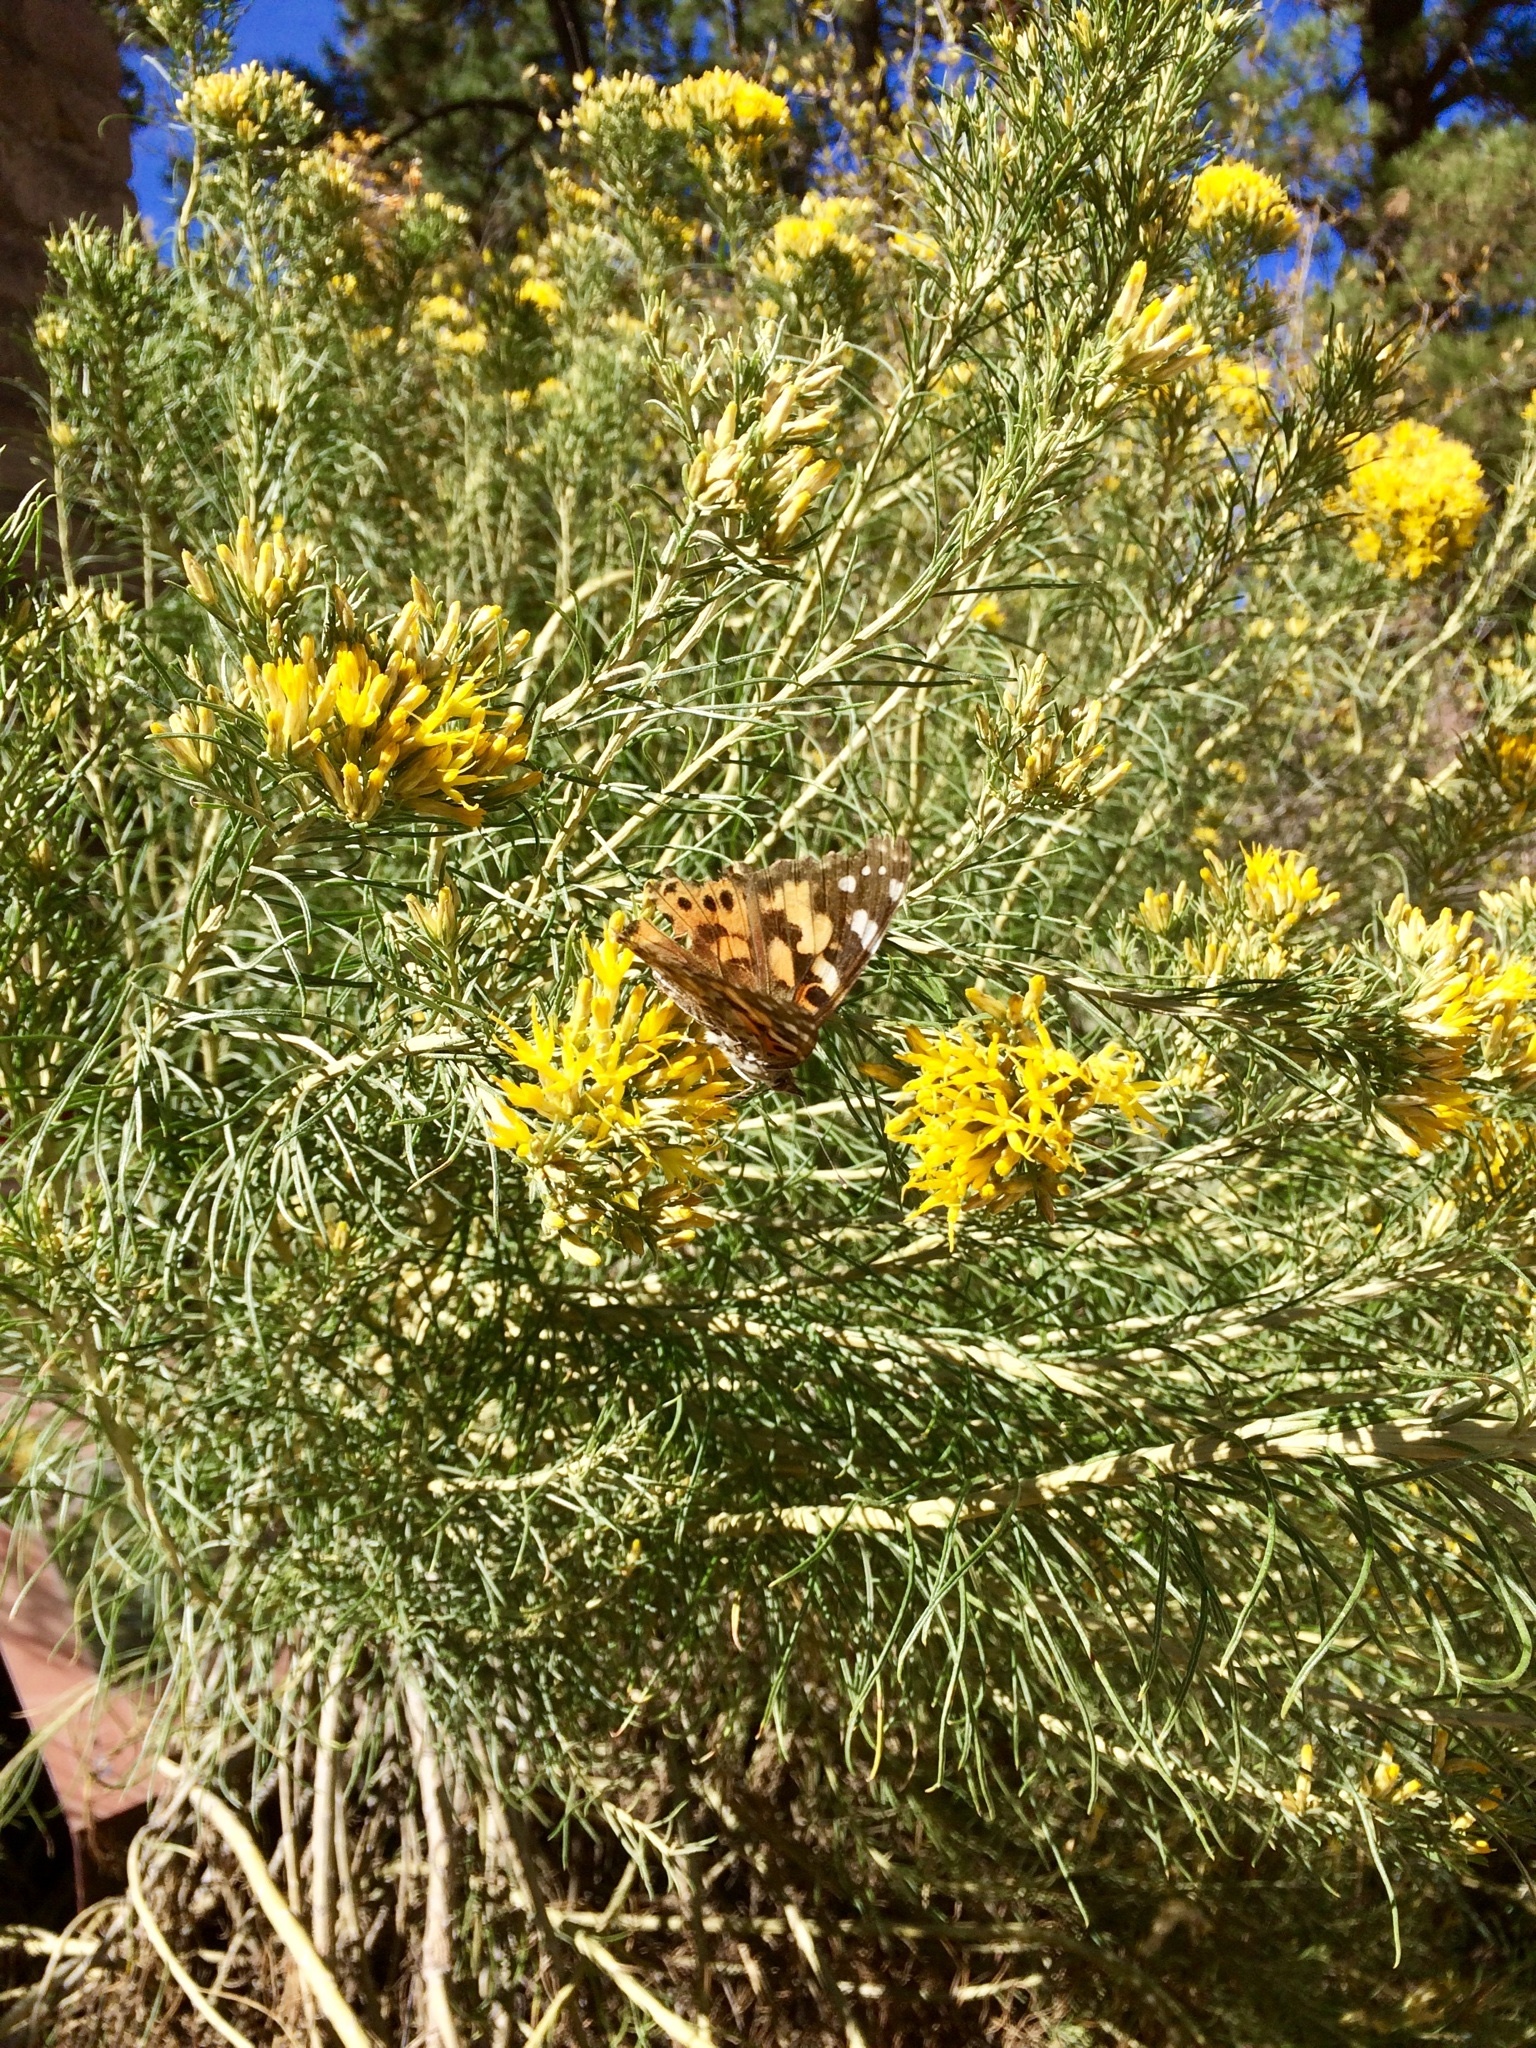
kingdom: Animalia
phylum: Arthropoda
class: Insecta
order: Lepidoptera
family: Nymphalidae
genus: Vanessa
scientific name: Vanessa cardui
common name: Painted lady
